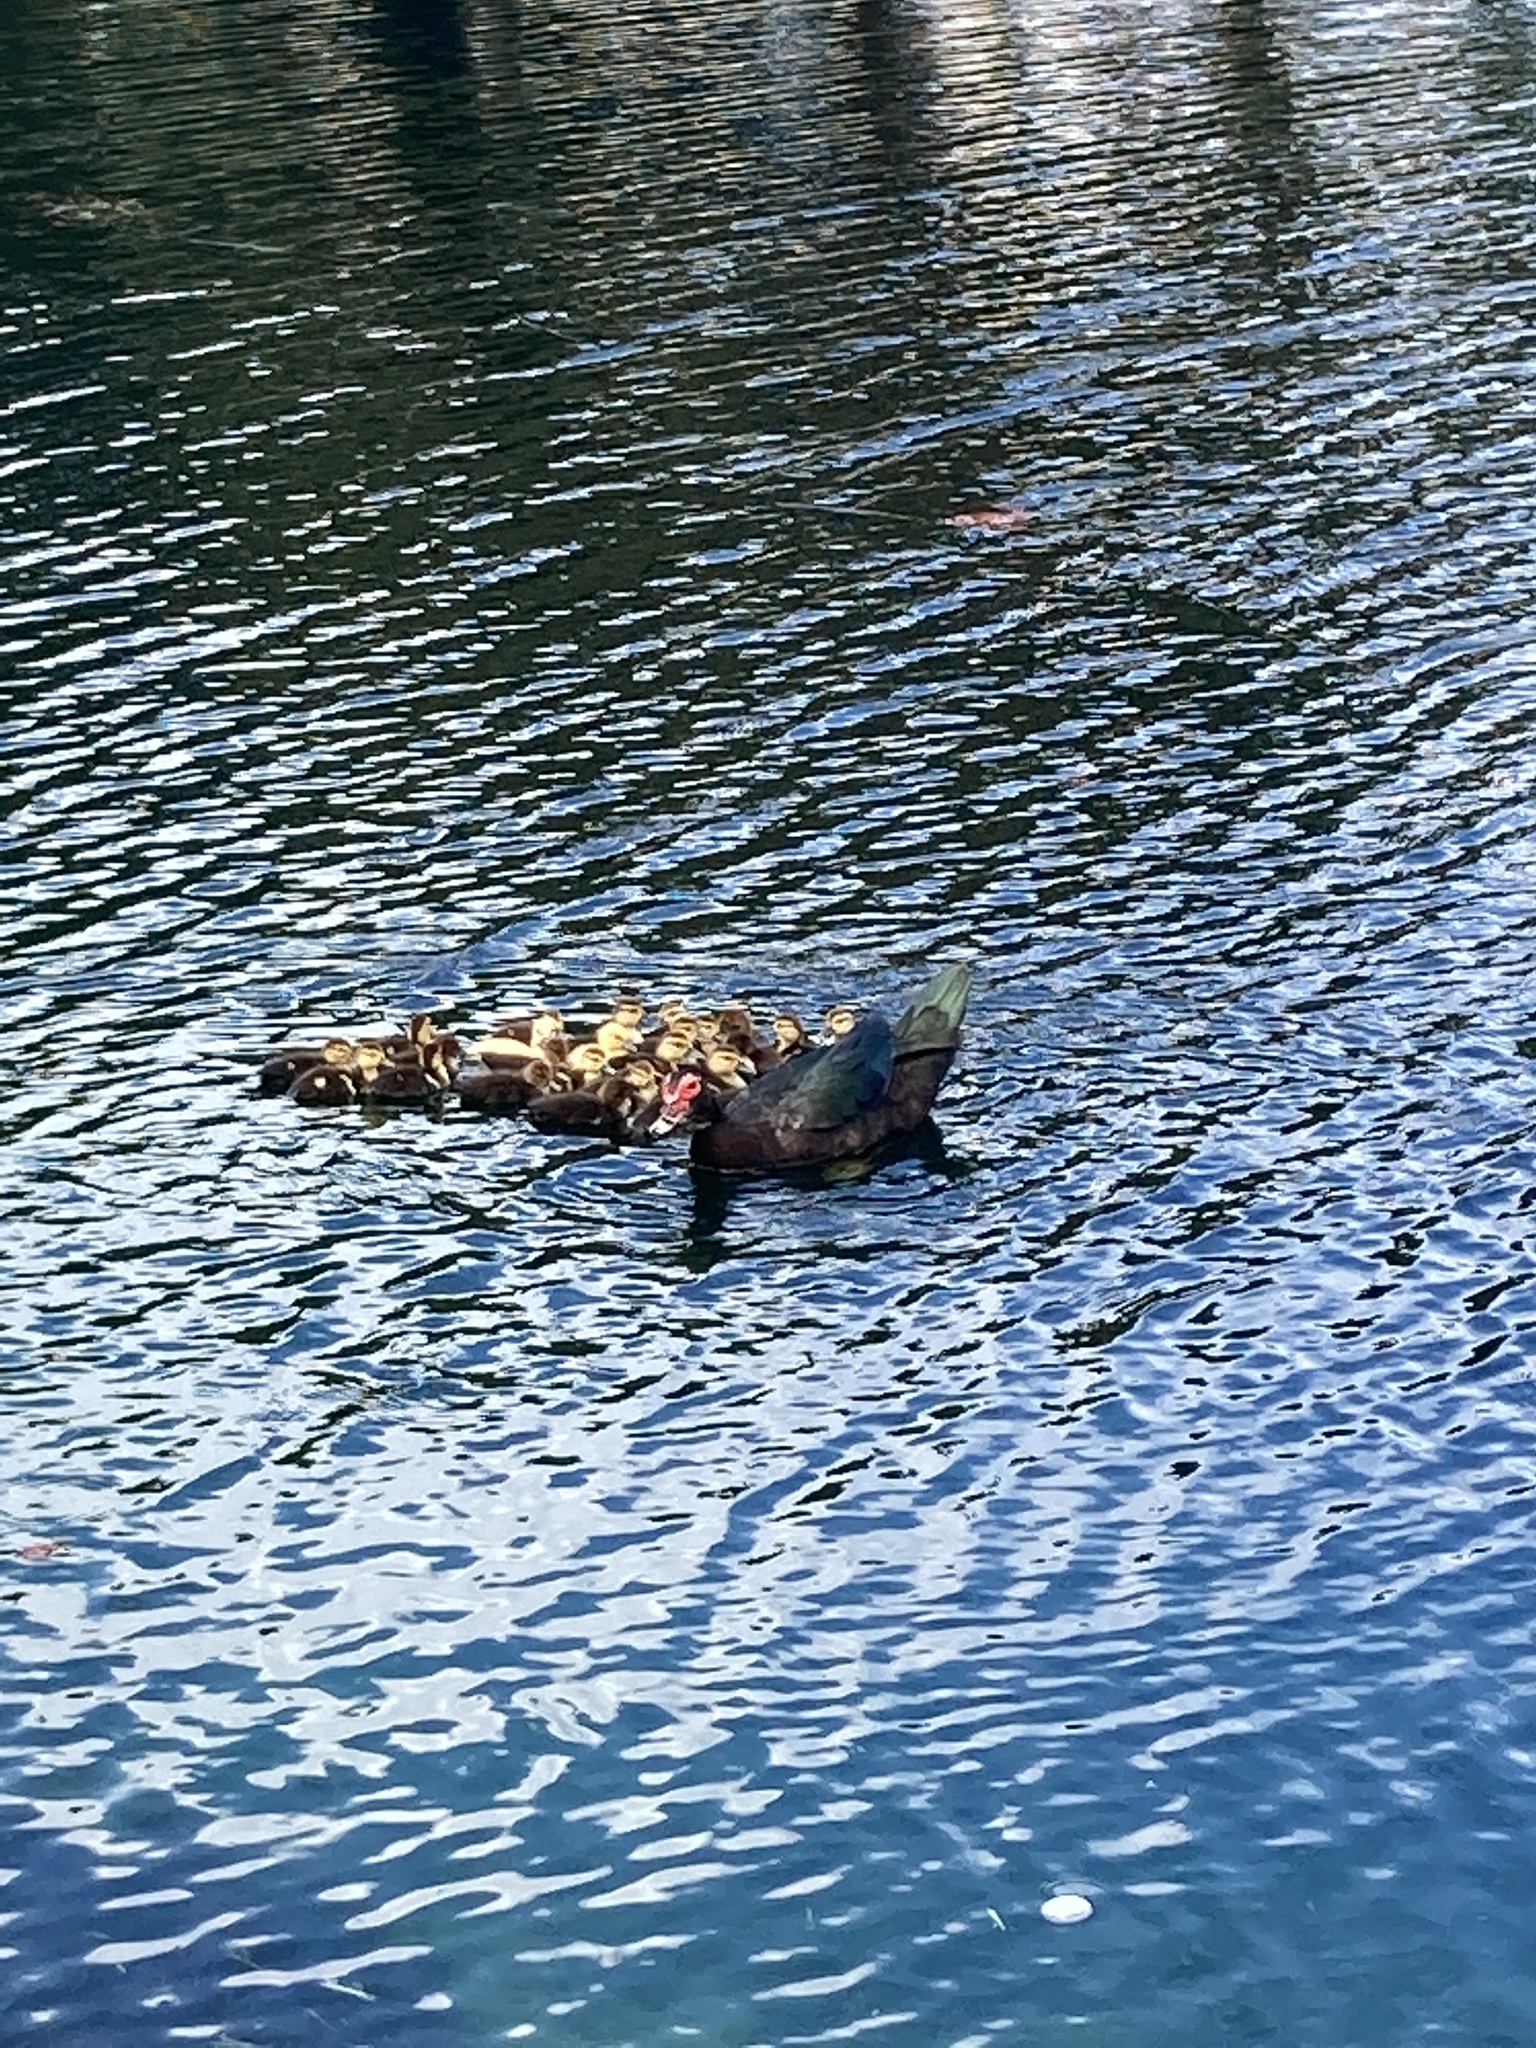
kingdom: Animalia
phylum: Chordata
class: Aves
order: Anseriformes
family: Anatidae
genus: Cairina
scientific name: Cairina moschata
